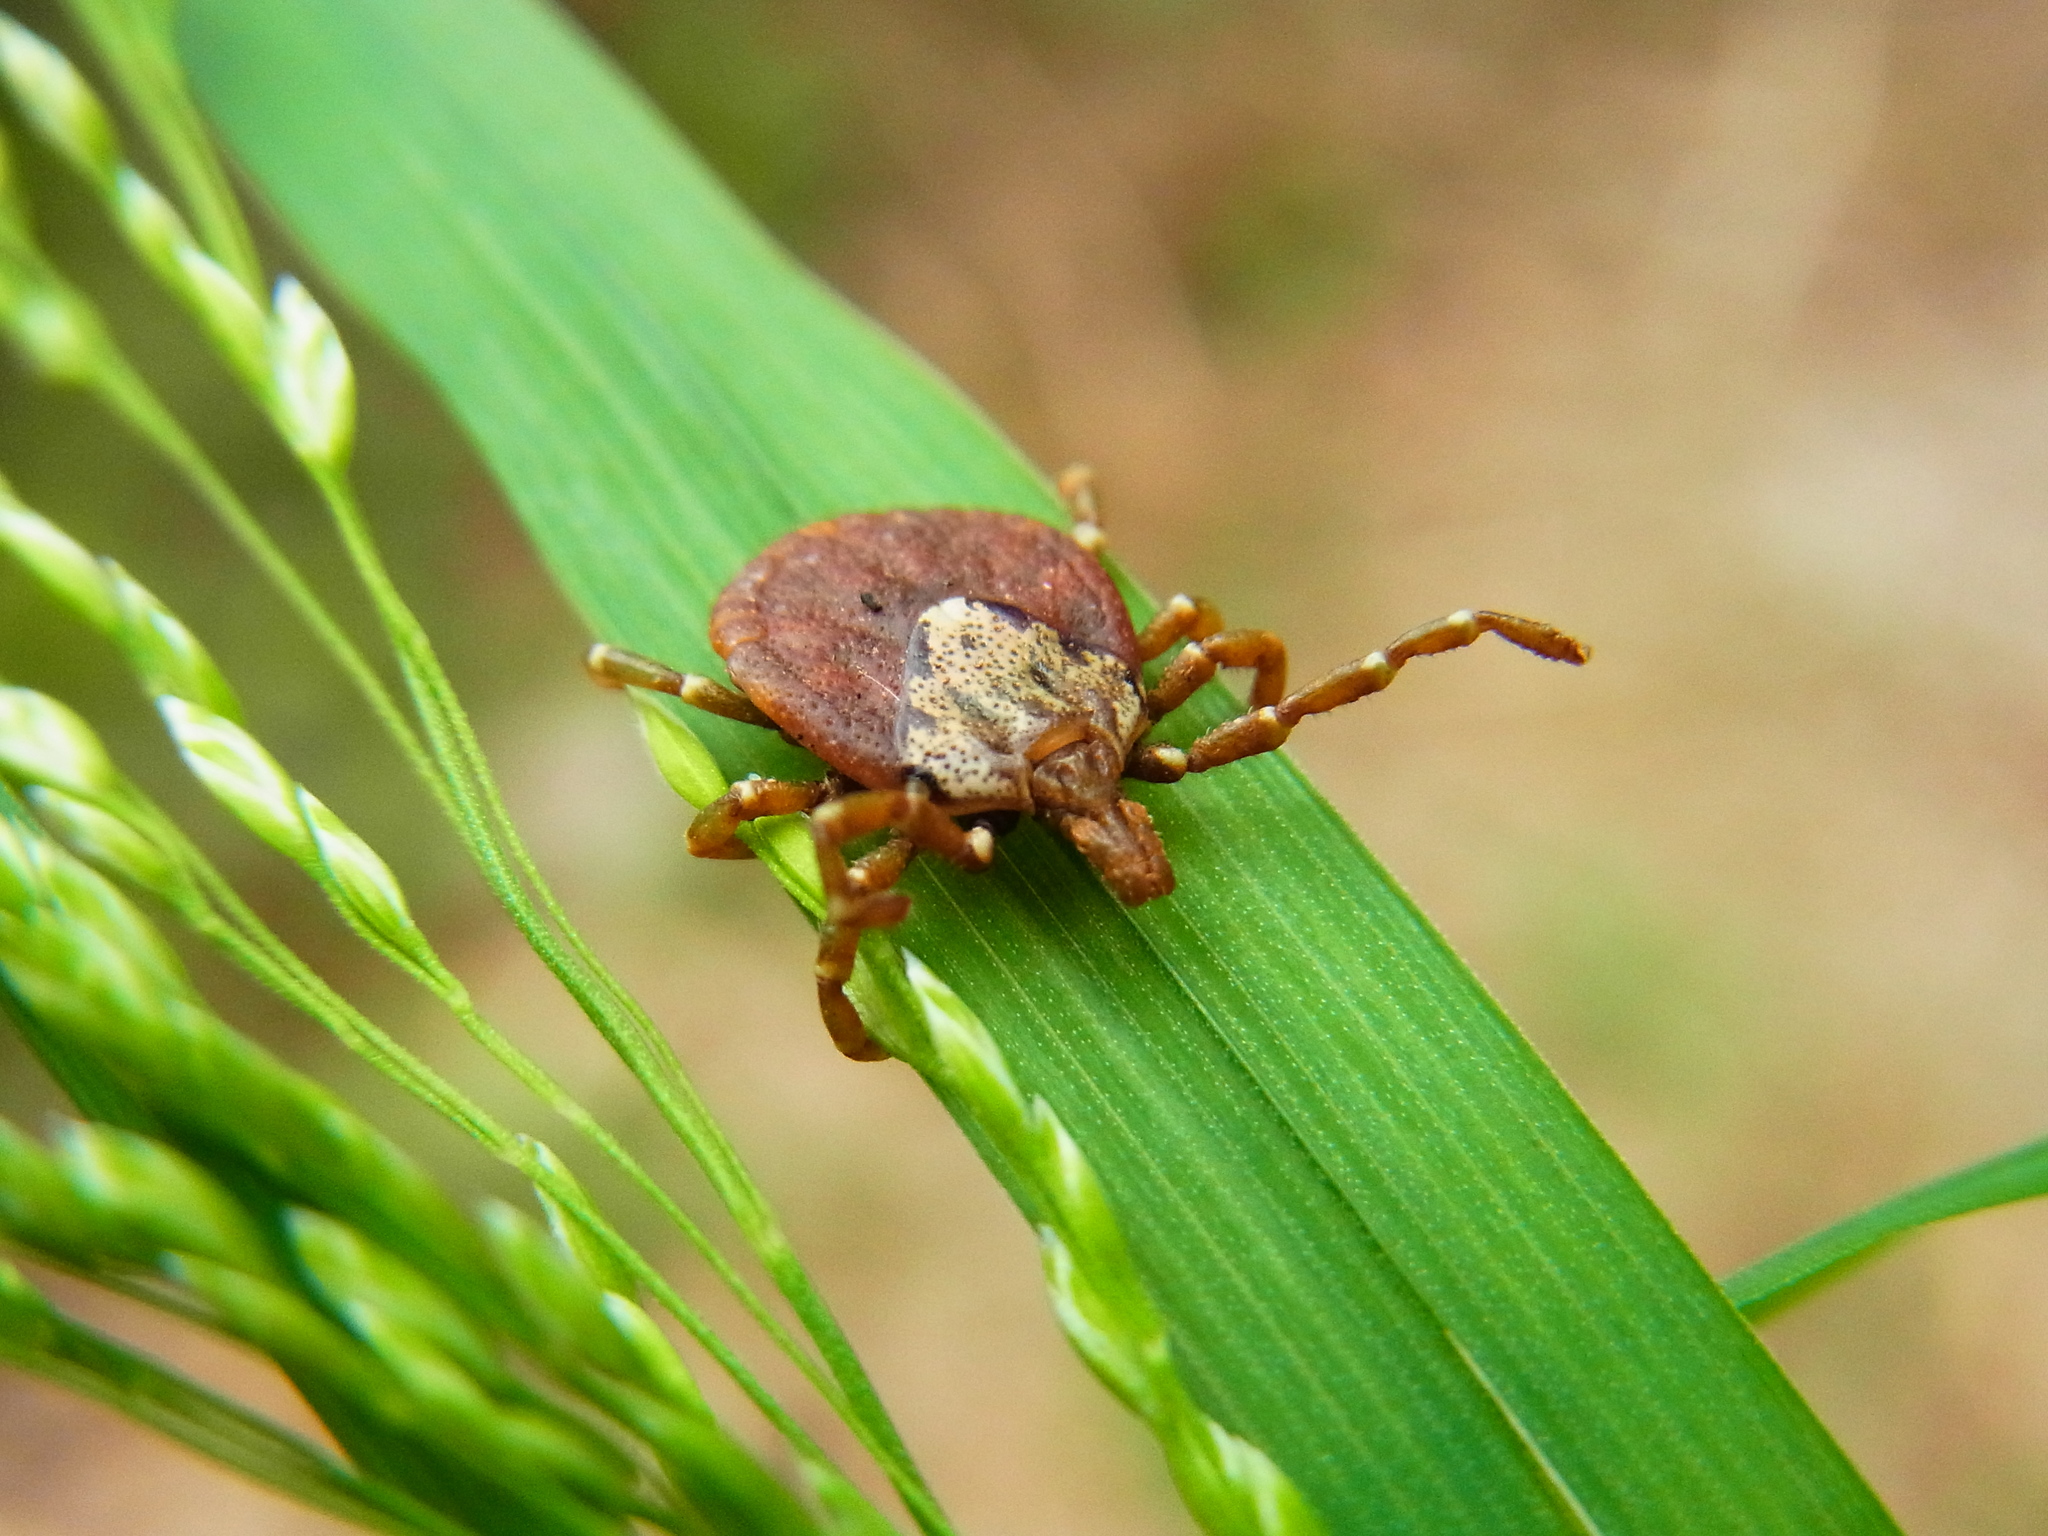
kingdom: Animalia
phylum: Arthropoda
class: Arachnida
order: Ixodida
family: Ixodidae
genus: Amblyomma
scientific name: Amblyomma testudinarium
